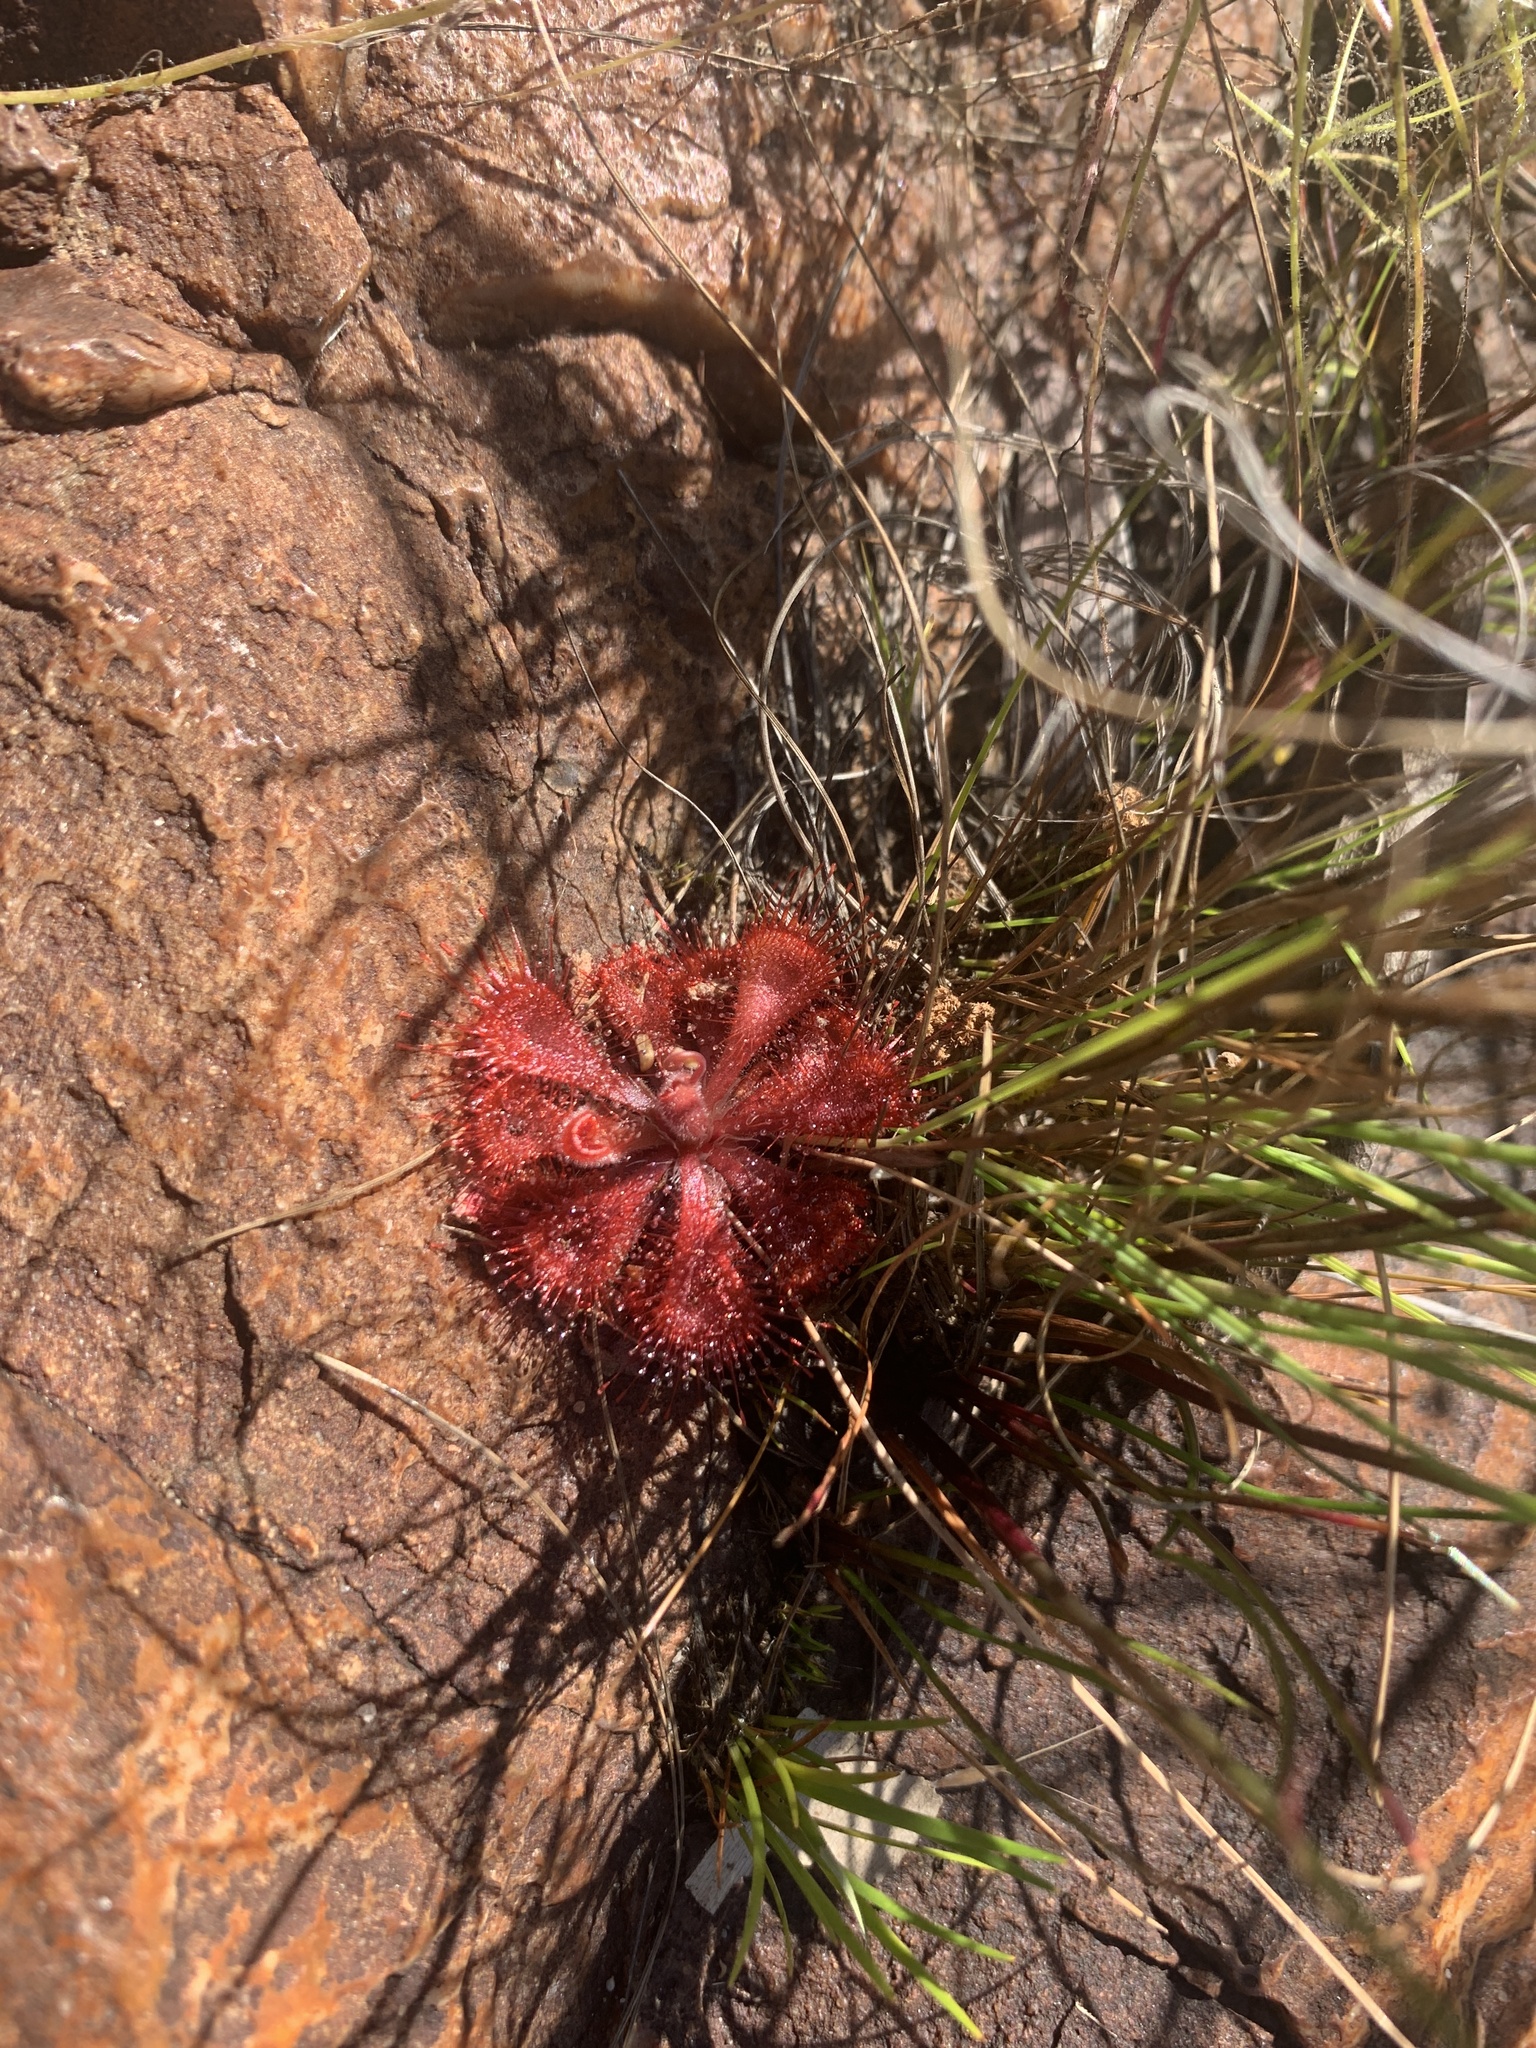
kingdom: Plantae
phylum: Tracheophyta
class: Magnoliopsida
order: Caryophyllales
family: Droseraceae
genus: Drosera
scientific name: Drosera spatulata
